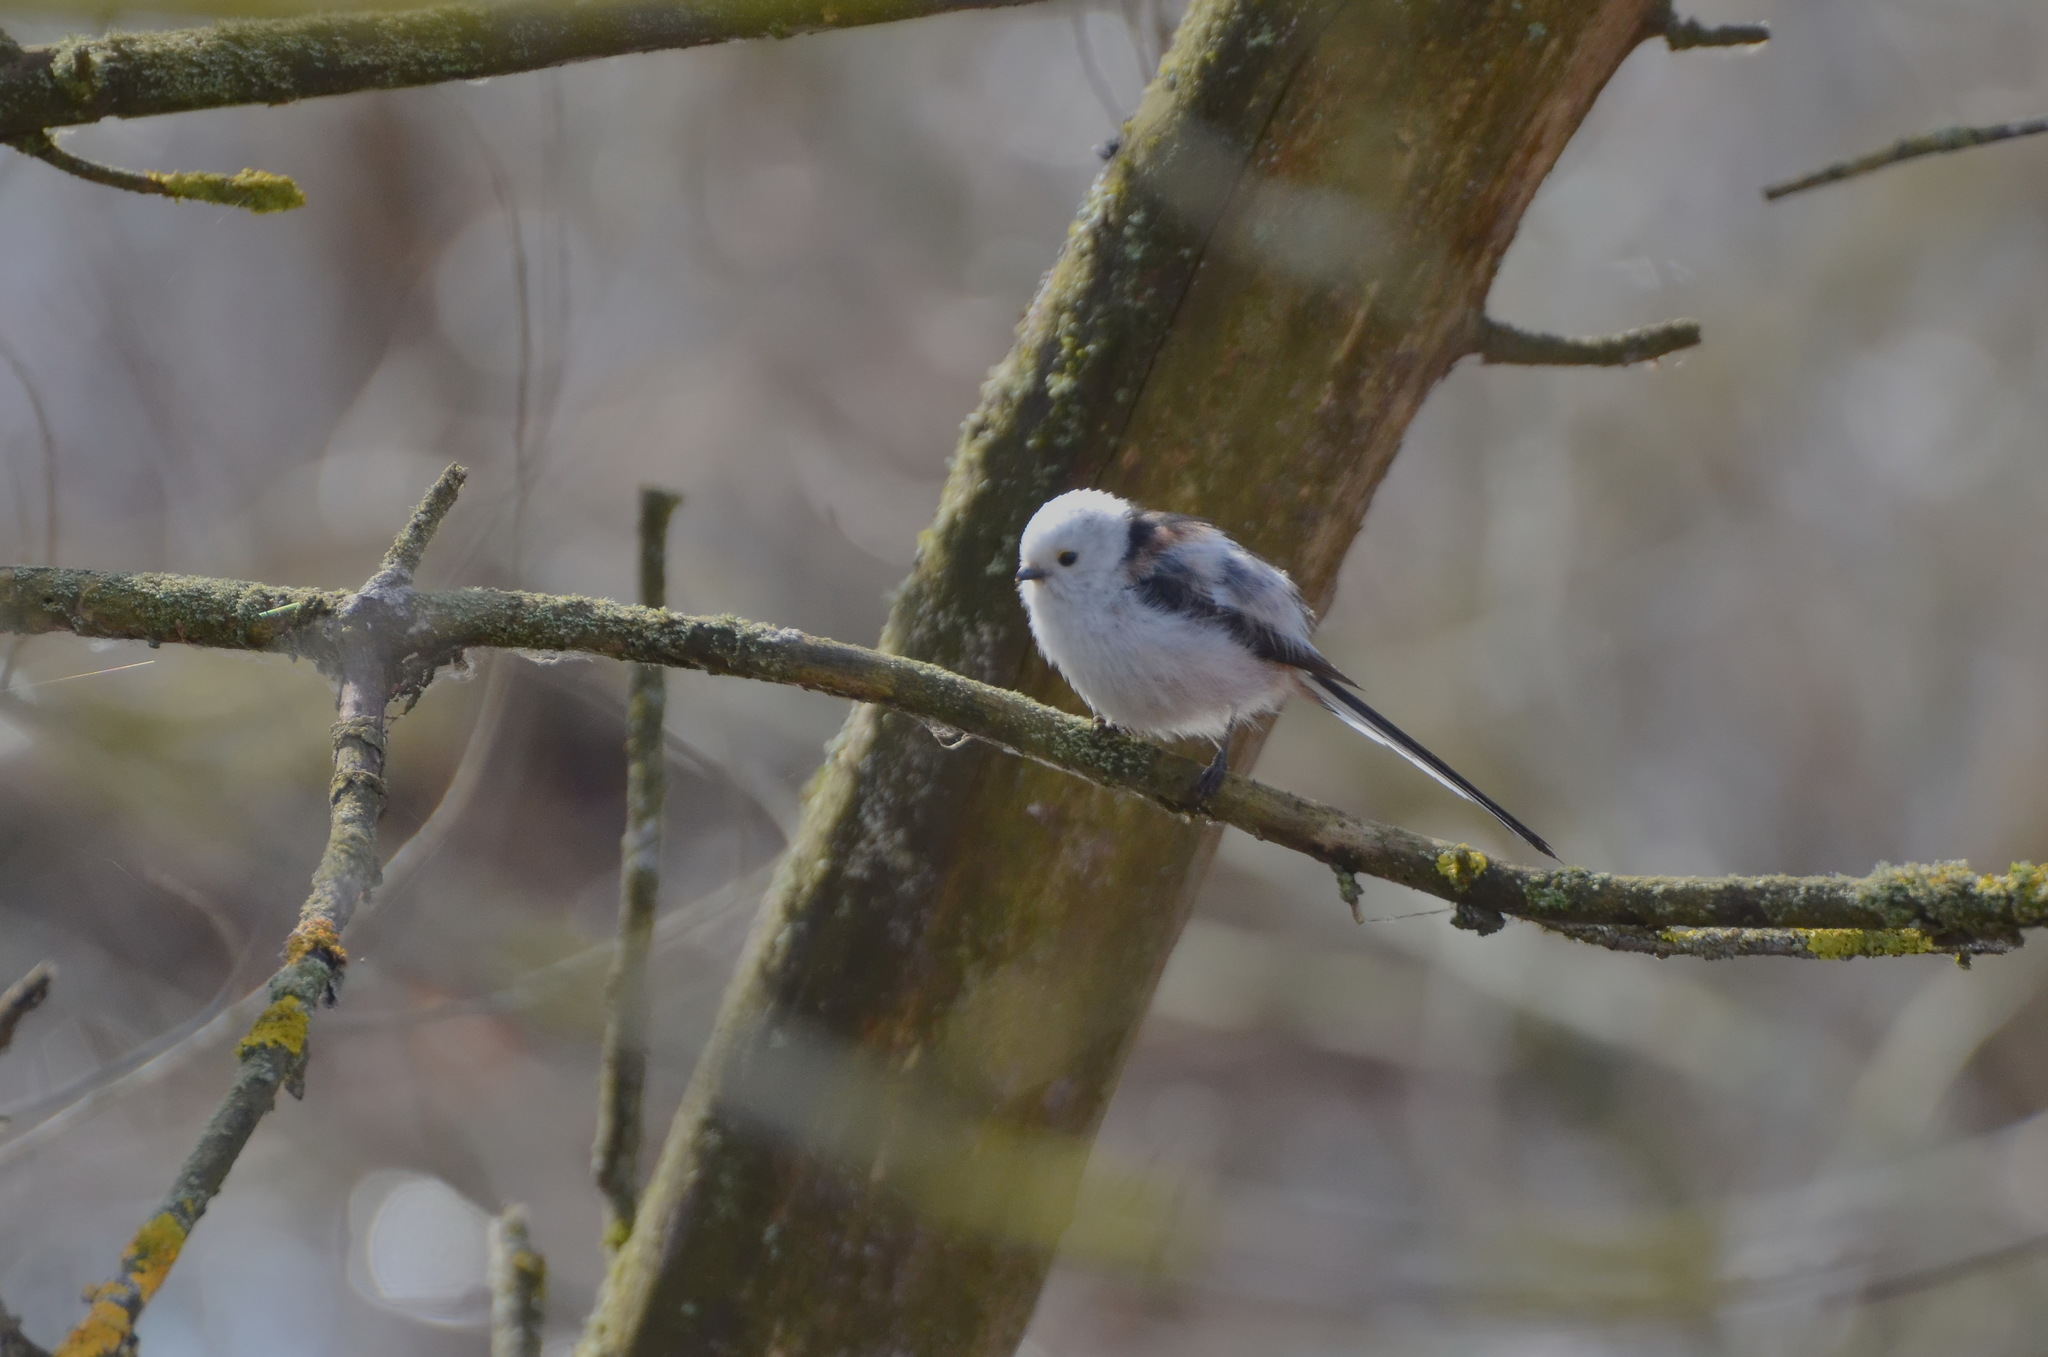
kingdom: Animalia
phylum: Chordata
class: Aves
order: Passeriformes
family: Aegithalidae
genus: Aegithalos
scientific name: Aegithalos caudatus
